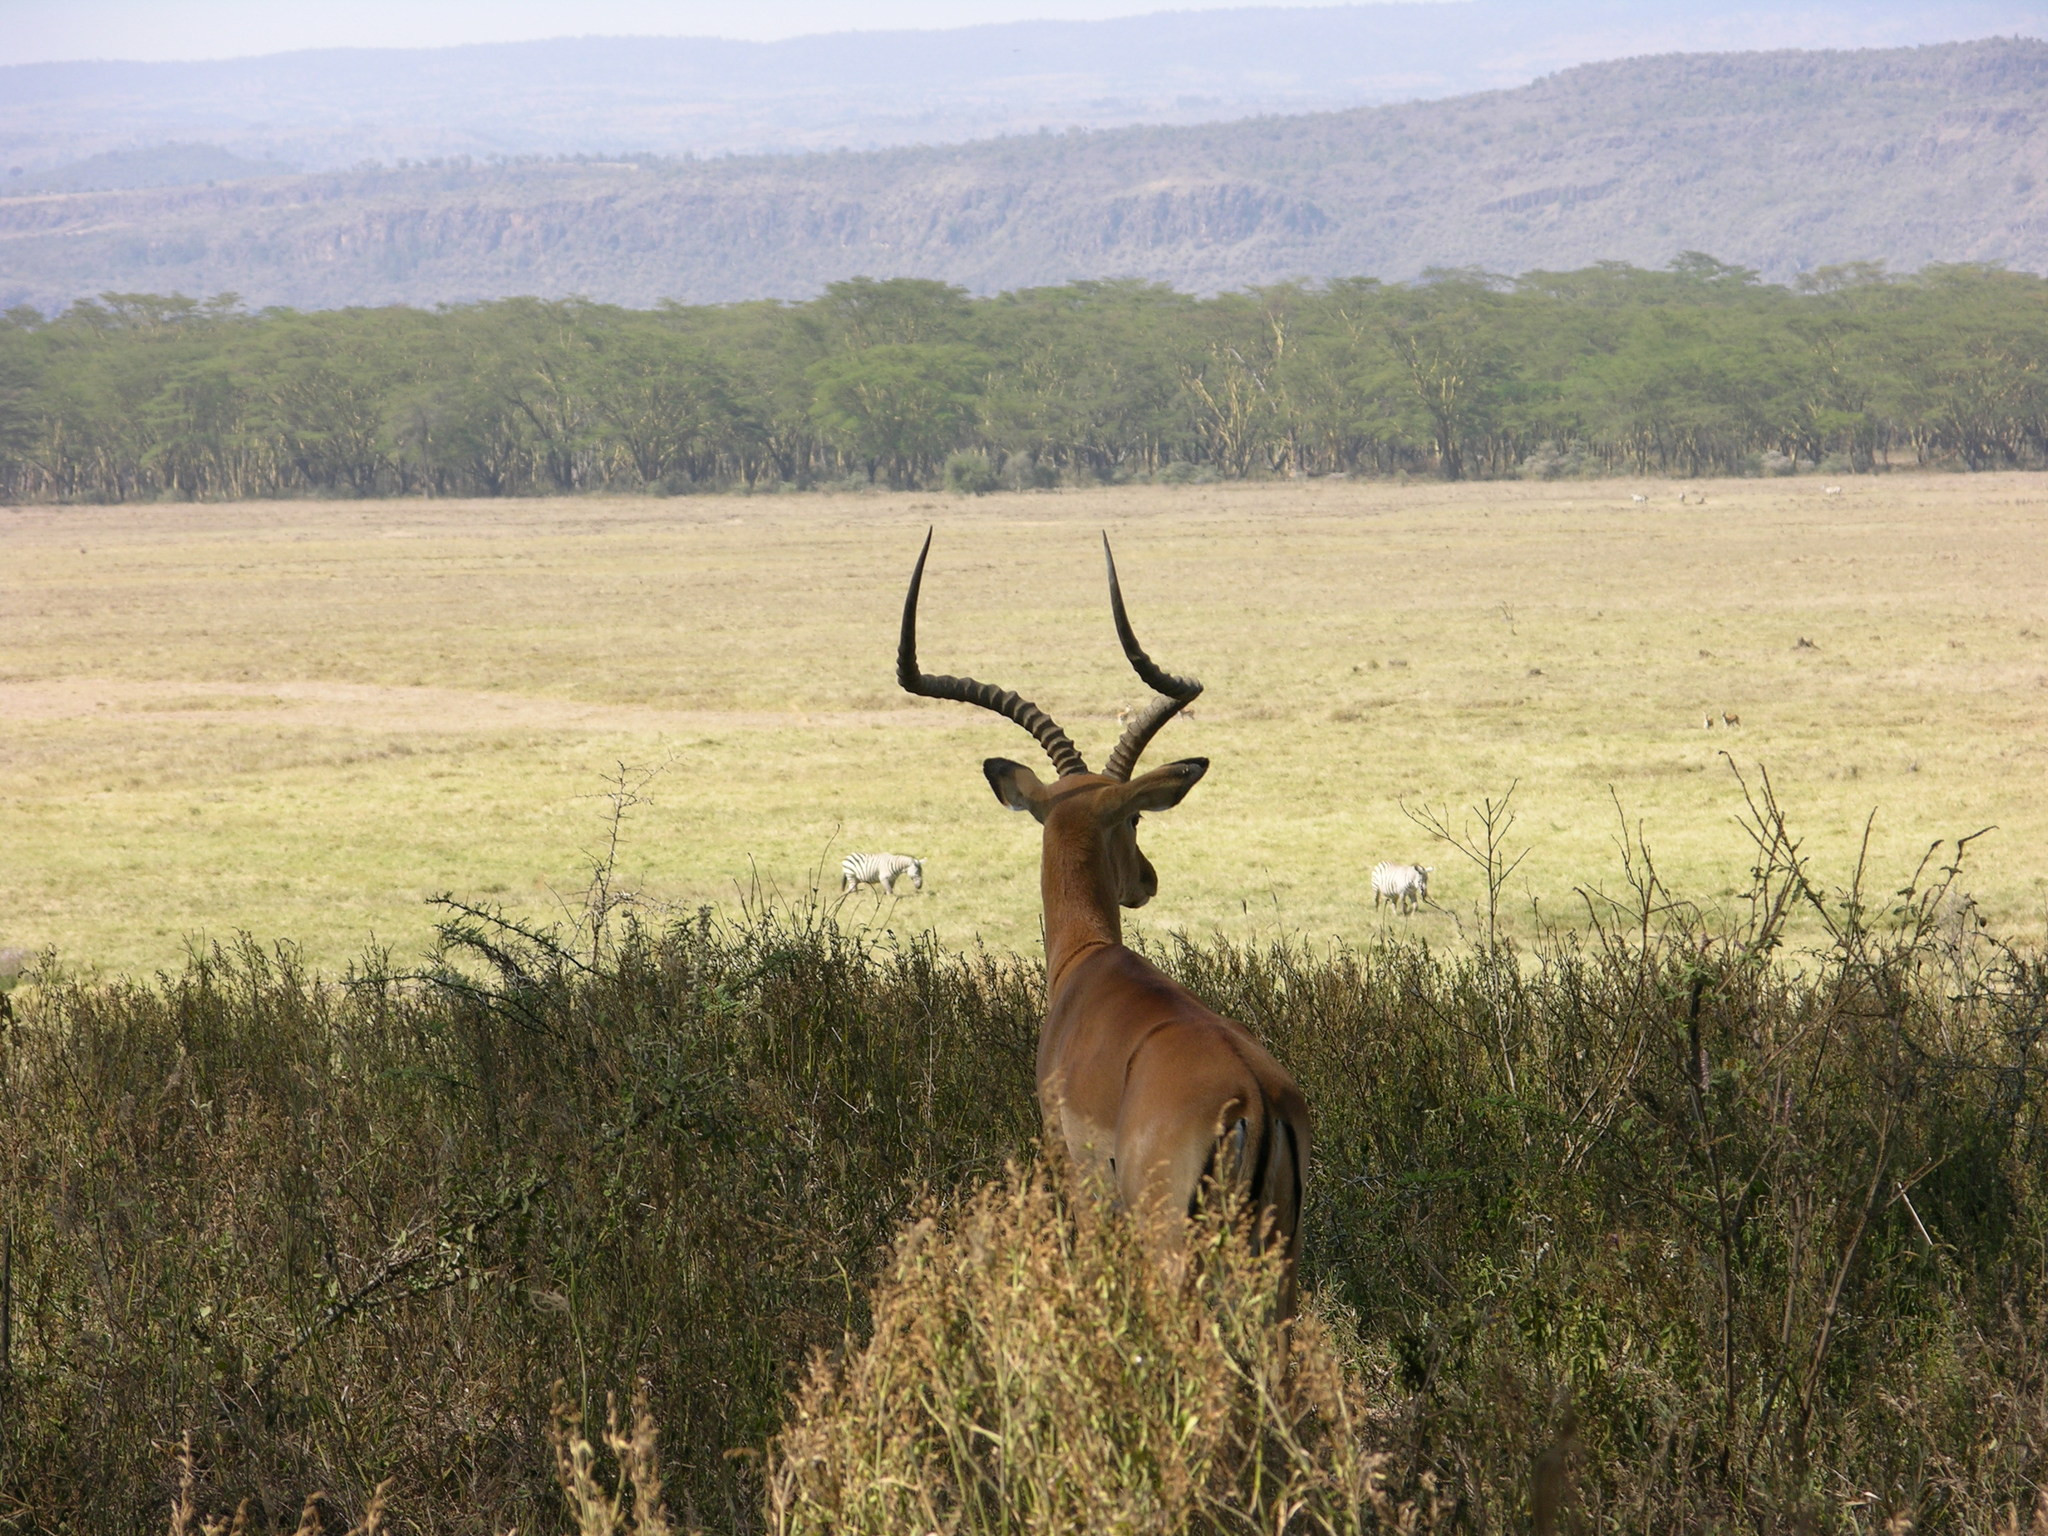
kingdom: Animalia
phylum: Chordata
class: Mammalia
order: Artiodactyla
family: Bovidae
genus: Aepyceros
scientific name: Aepyceros melampus
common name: Impala
